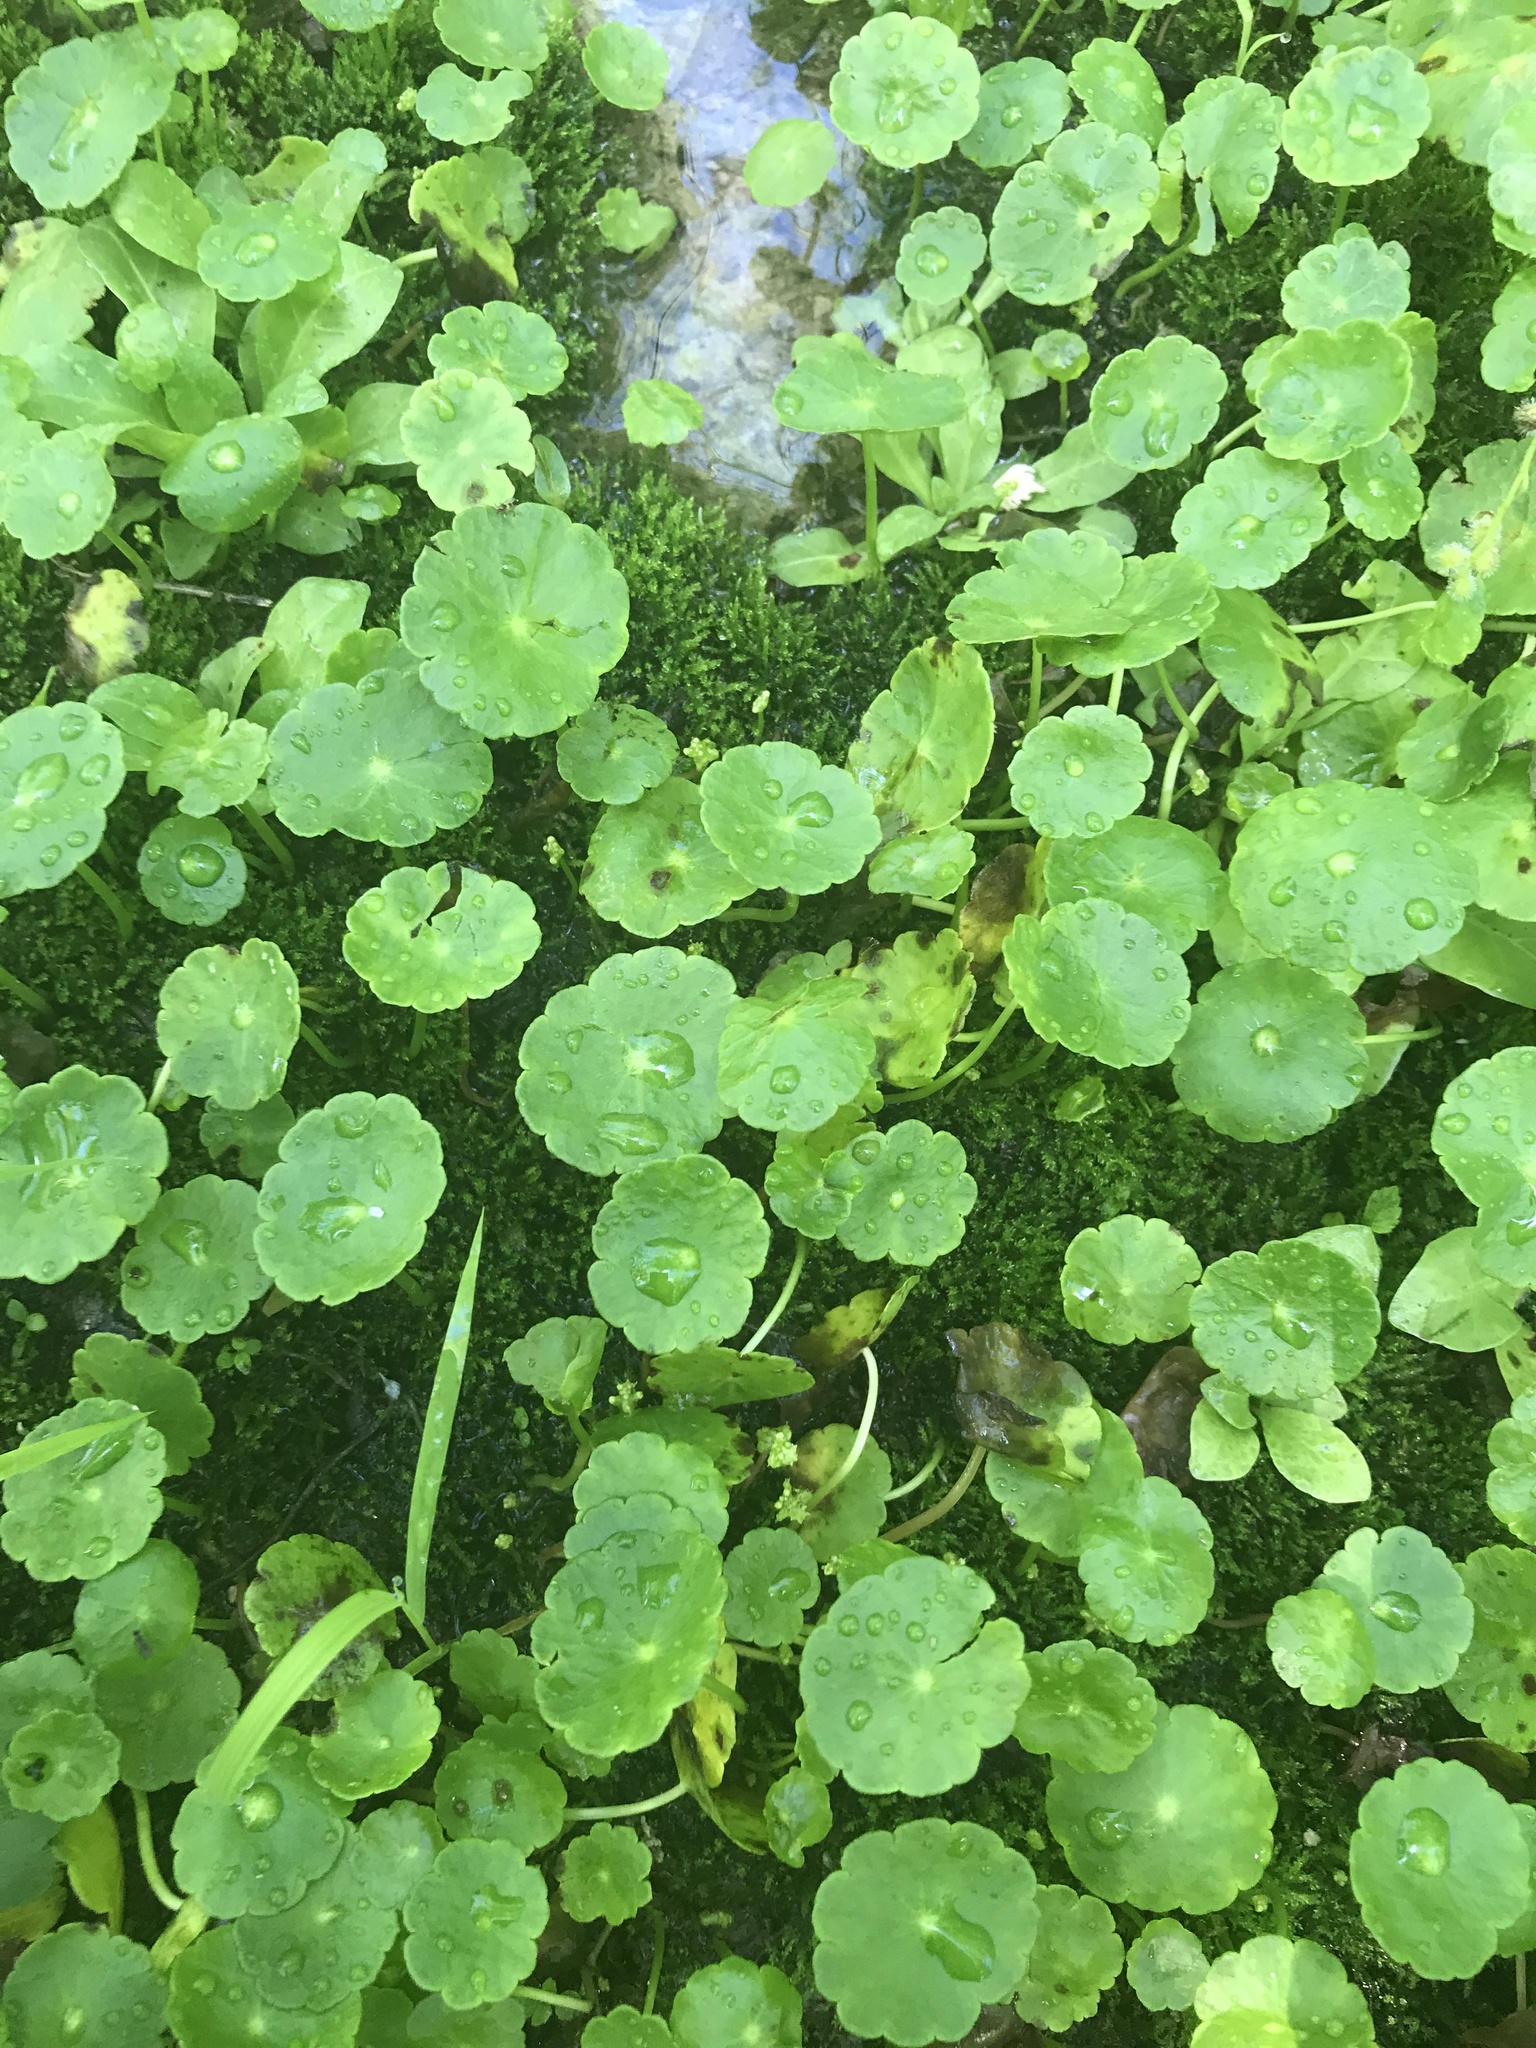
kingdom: Plantae
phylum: Tracheophyta
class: Magnoliopsida
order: Apiales
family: Araliaceae
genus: Hydrocotyle
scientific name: Hydrocotyle verticillata
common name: Whorled marshpennywort
